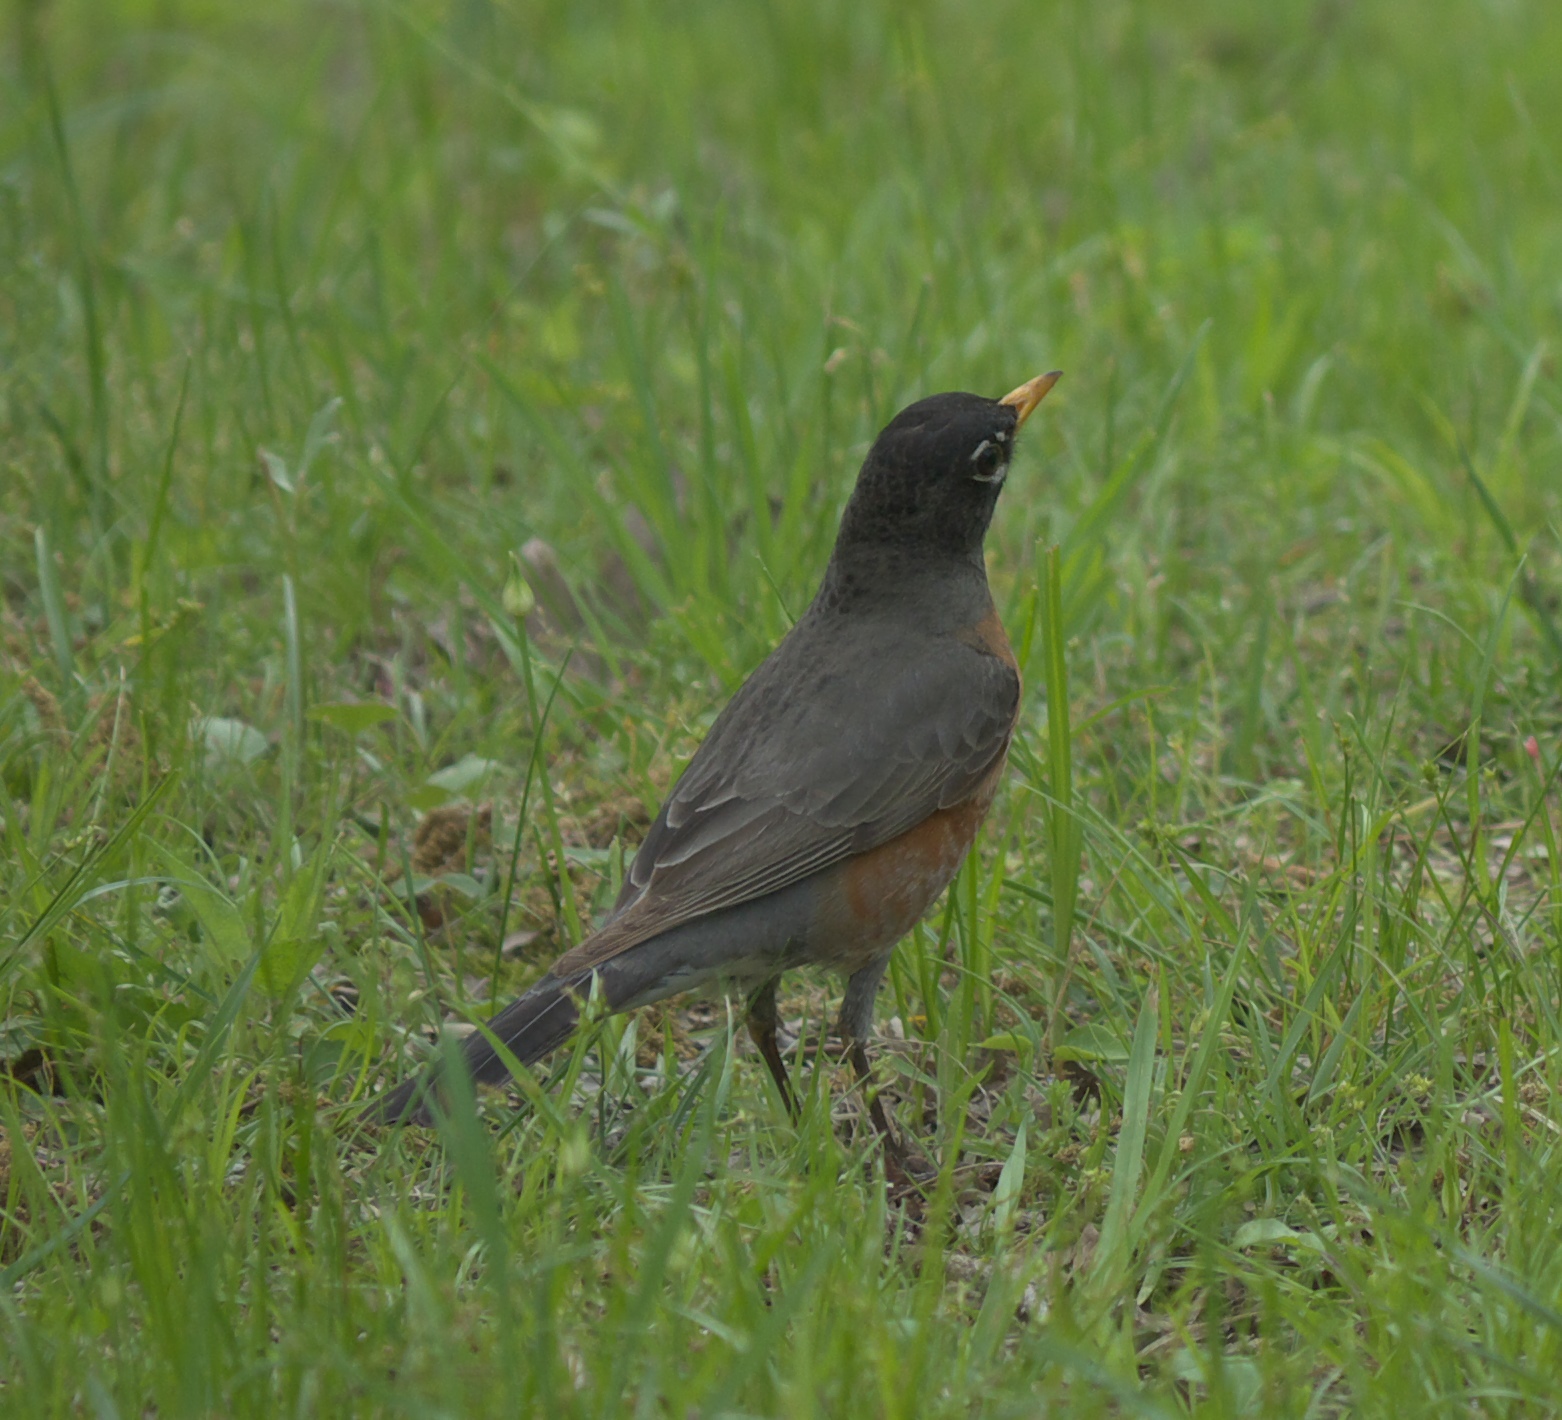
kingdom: Animalia
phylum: Chordata
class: Aves
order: Passeriformes
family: Turdidae
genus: Turdus
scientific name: Turdus migratorius
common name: American robin
